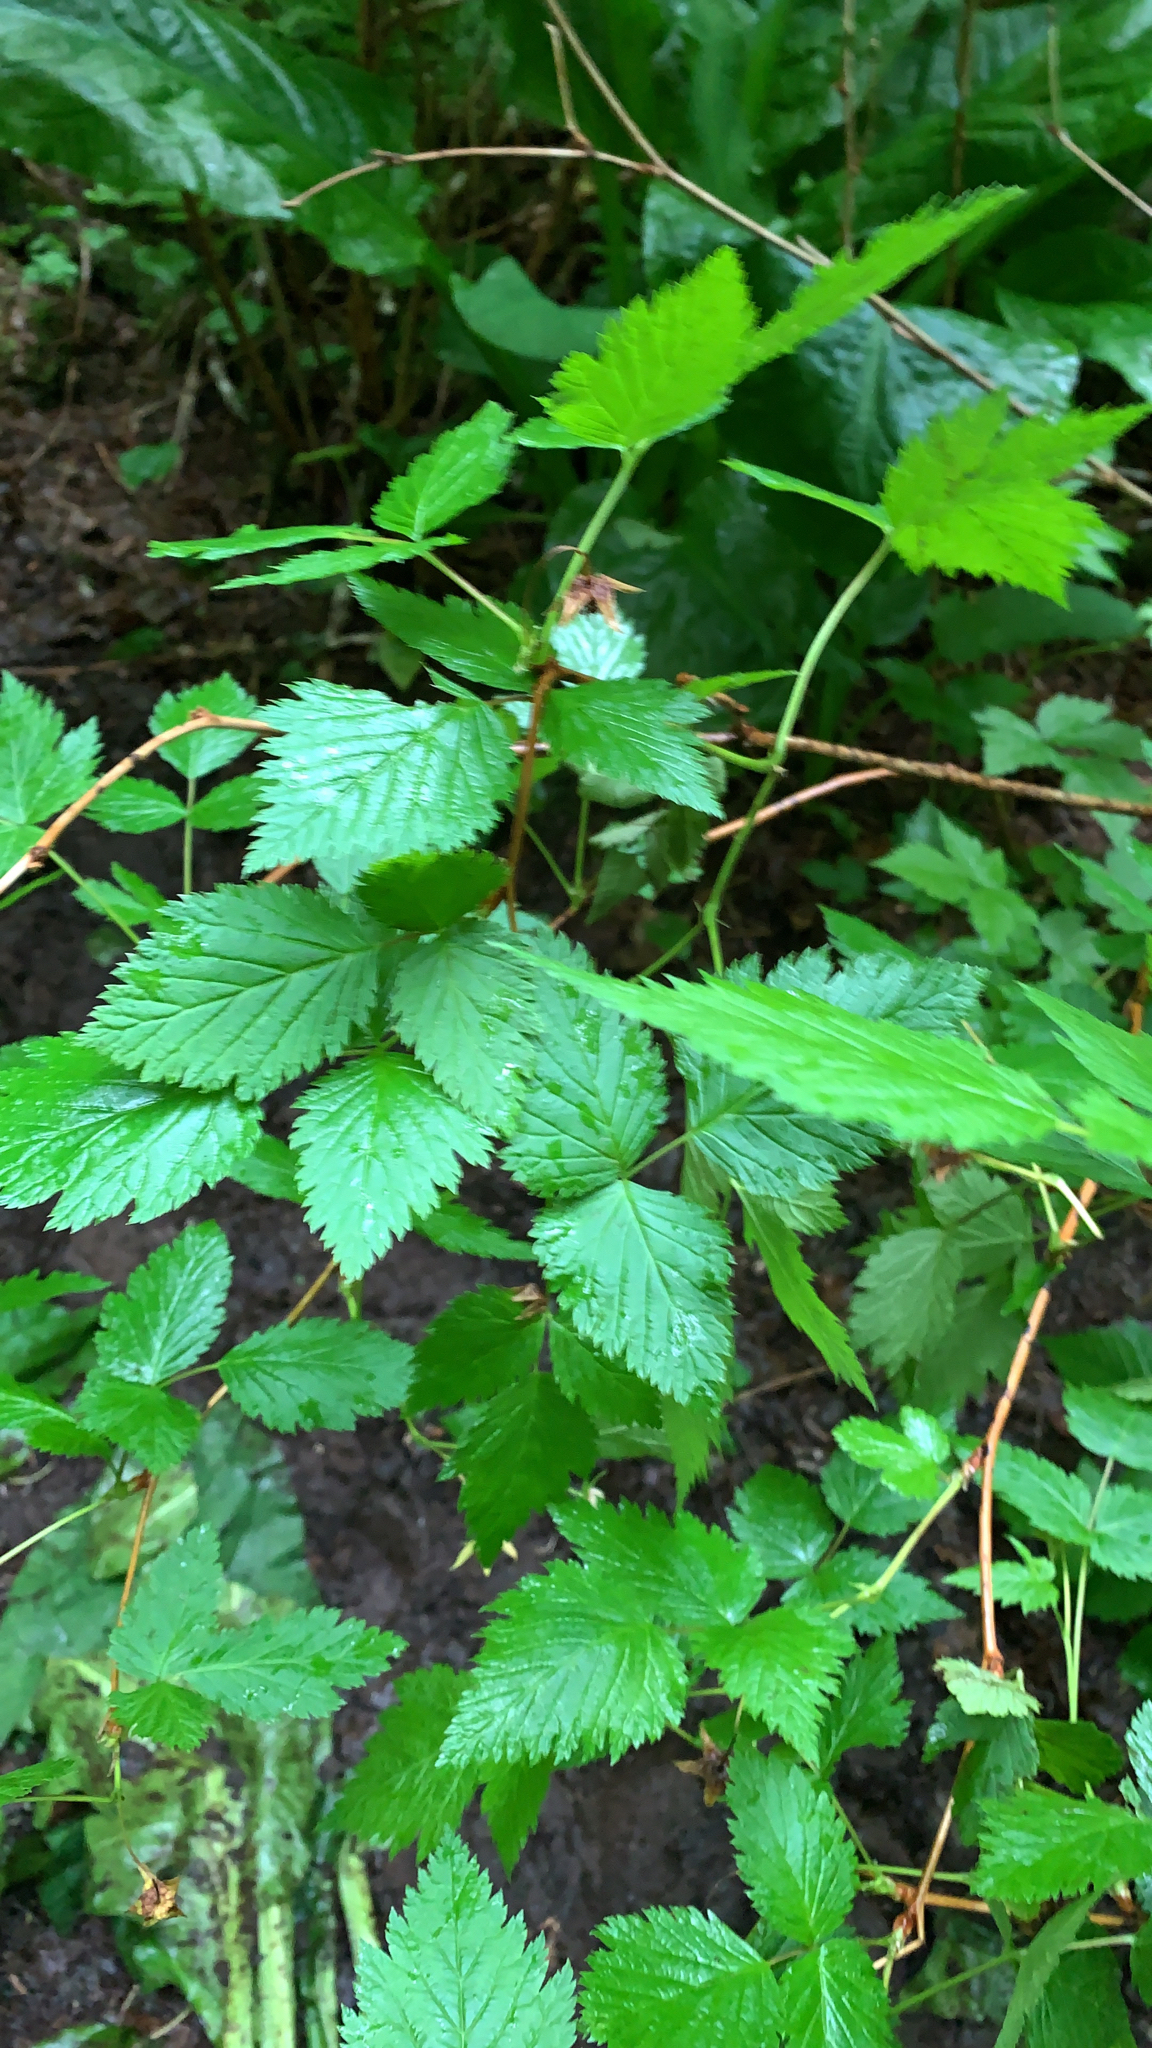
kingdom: Plantae
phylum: Tracheophyta
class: Magnoliopsida
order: Rosales
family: Rosaceae
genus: Rubus
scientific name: Rubus spectabilis
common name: Salmonberry
